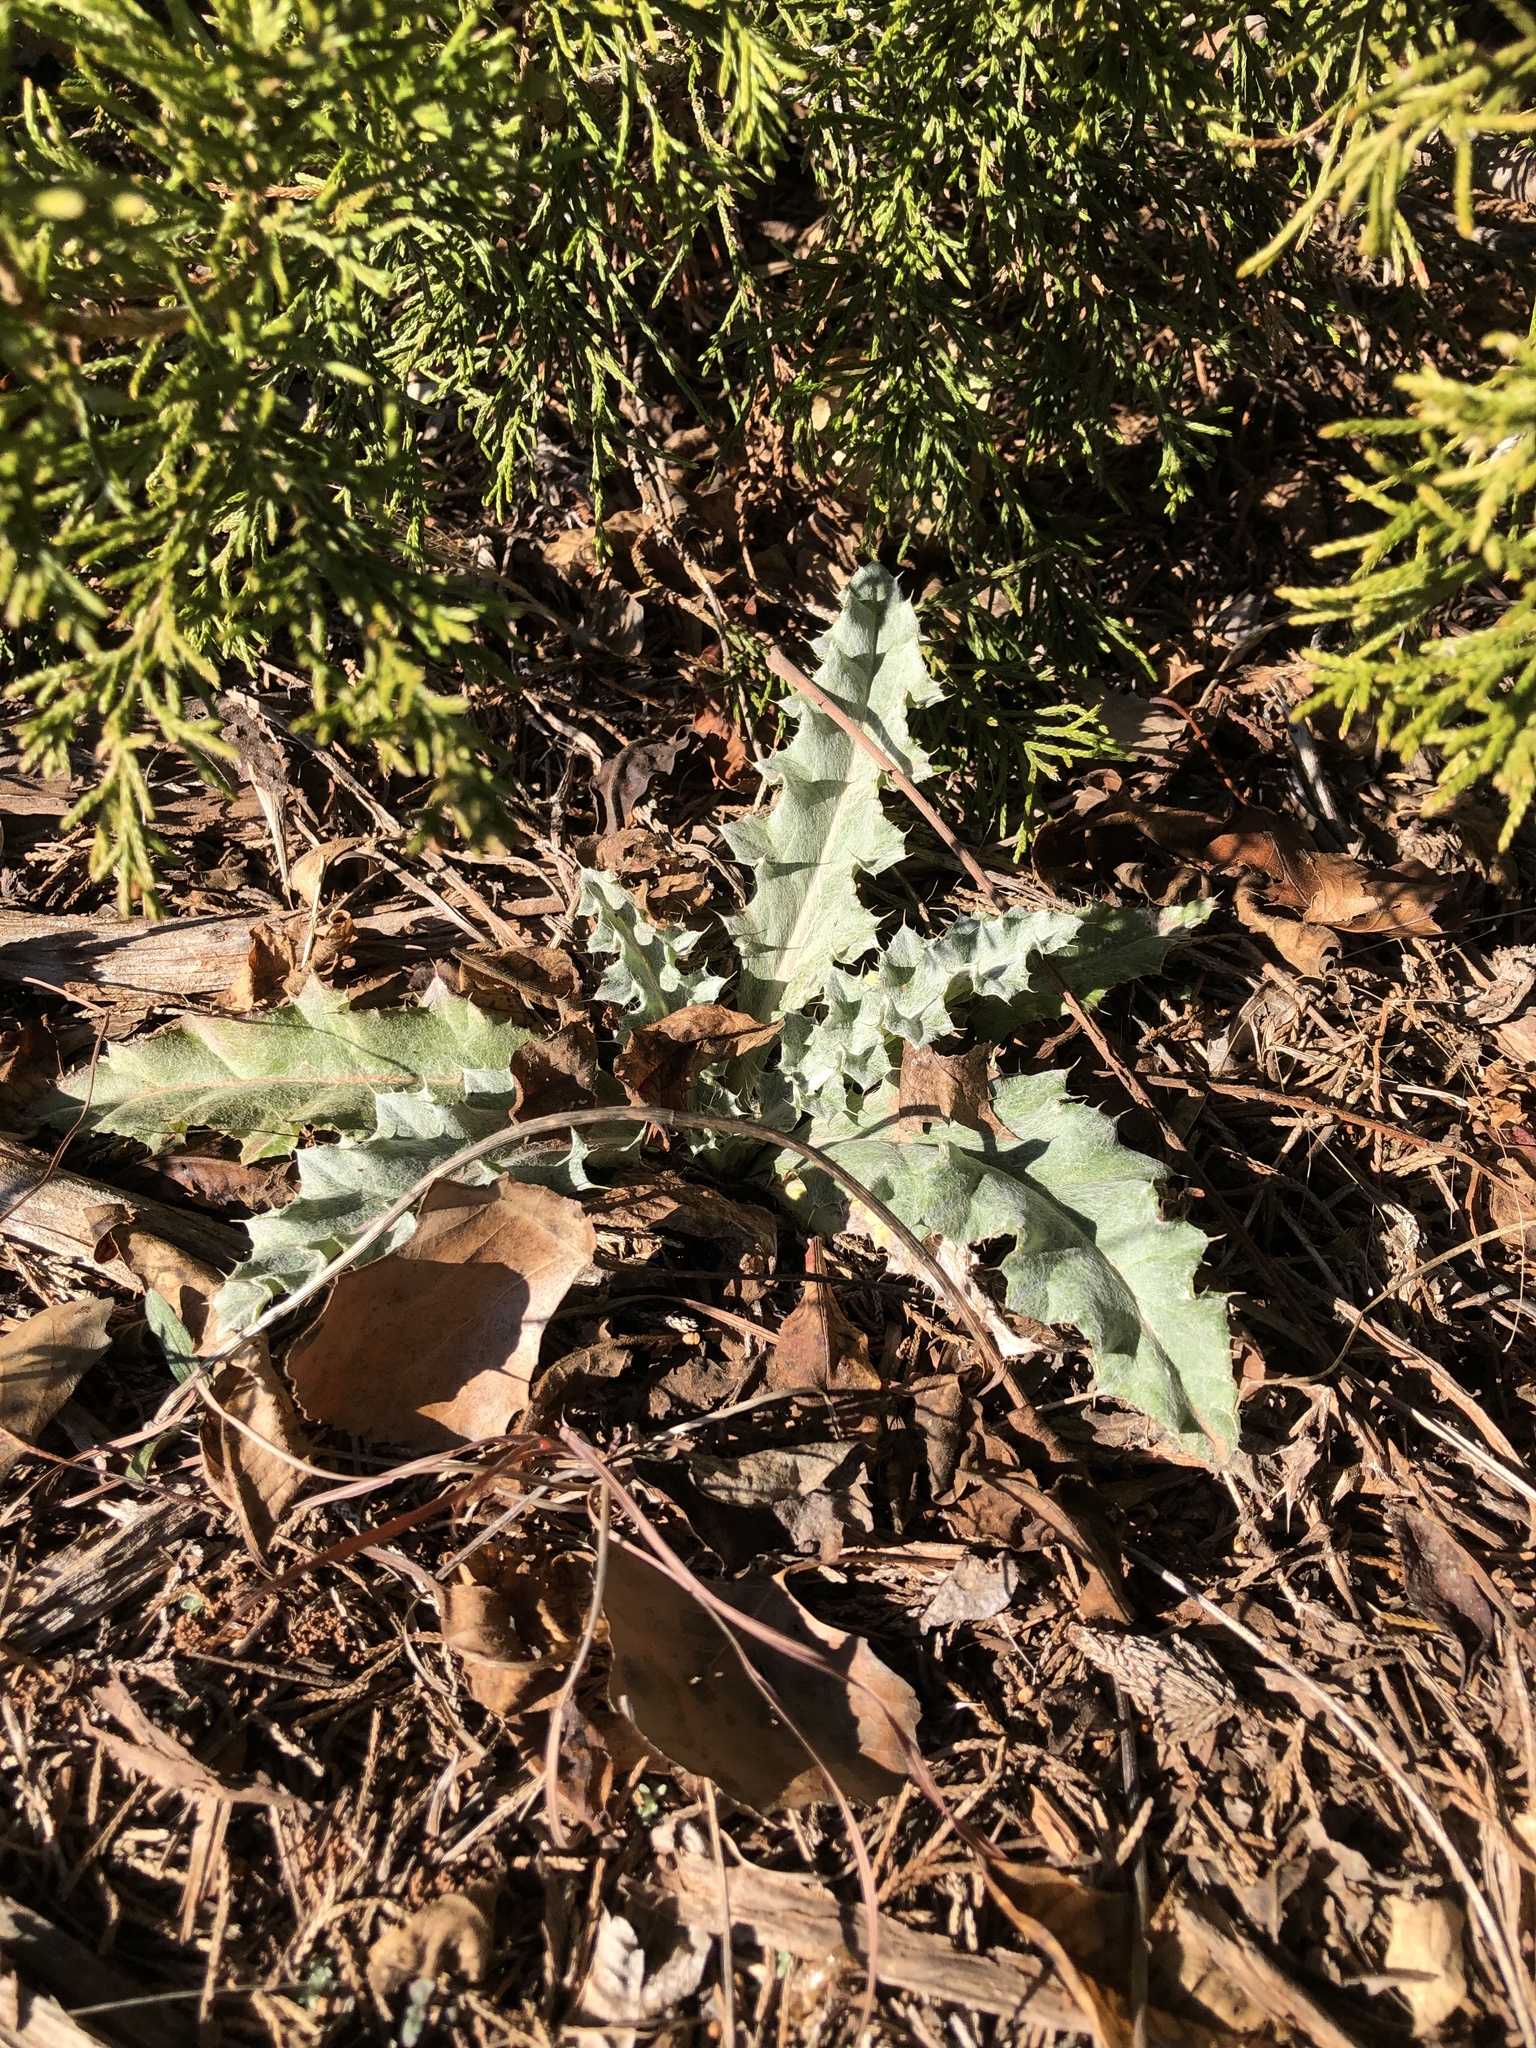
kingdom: Plantae
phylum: Tracheophyta
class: Magnoliopsida
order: Asterales
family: Asteraceae
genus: Cirsium
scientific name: Cirsium undulatum
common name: Pasture thistle
